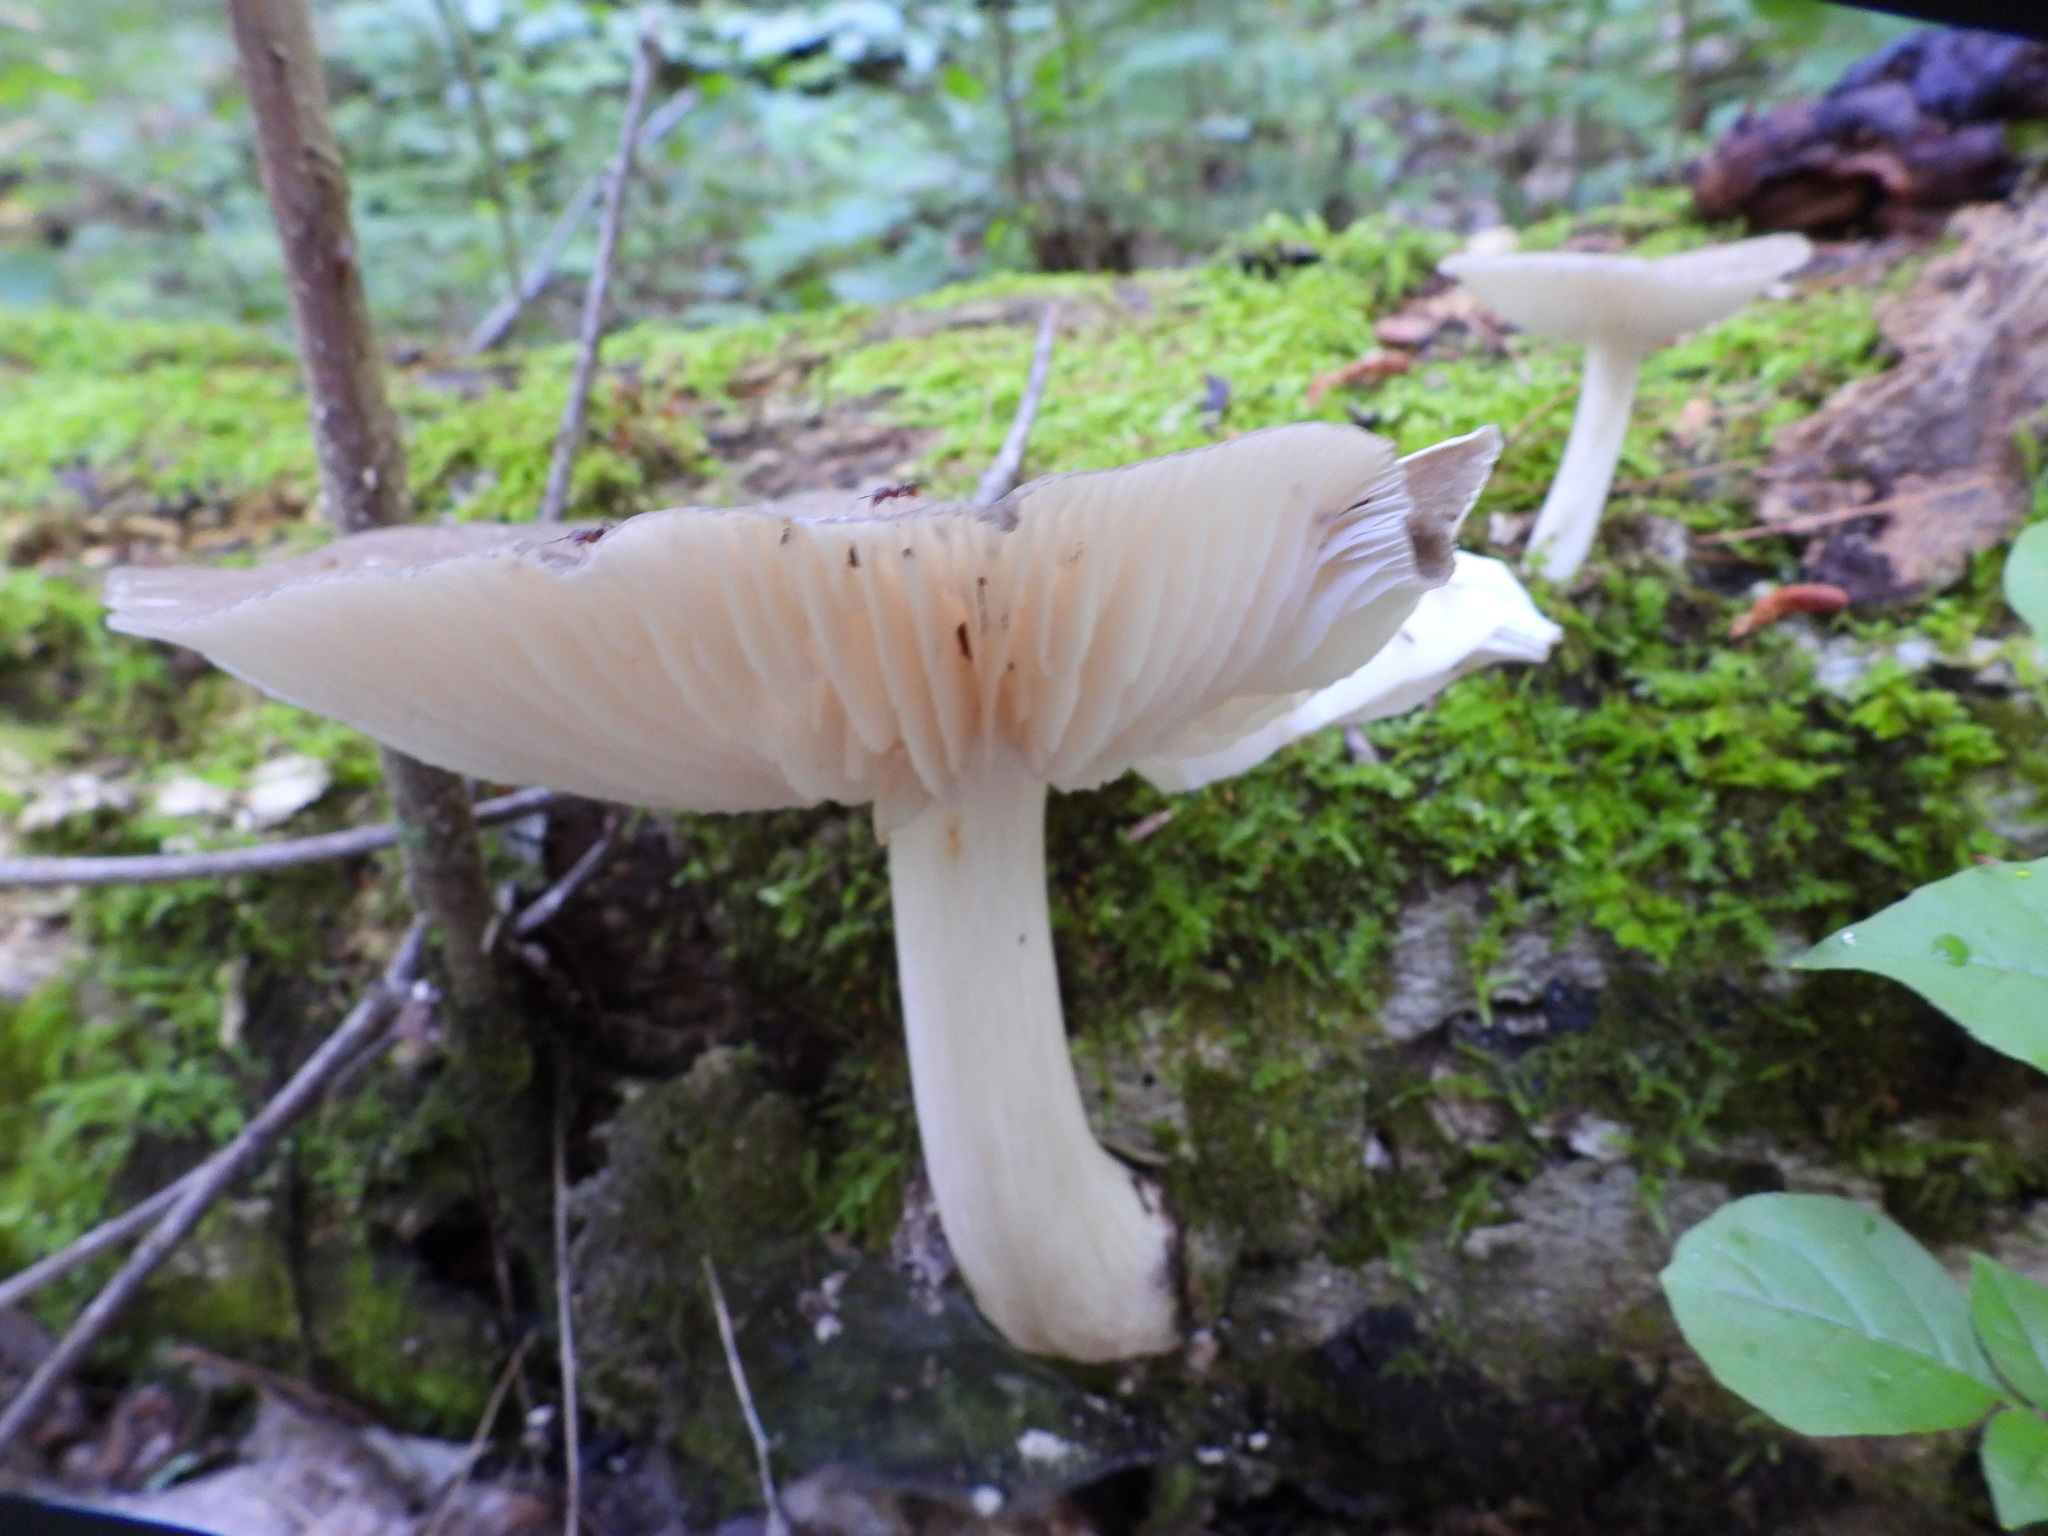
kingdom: Fungi
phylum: Basidiomycota
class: Agaricomycetes
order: Agaricales
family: Tricholomataceae
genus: Megacollybia
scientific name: Megacollybia rodmanii
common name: Eastern american platterful mushroom
